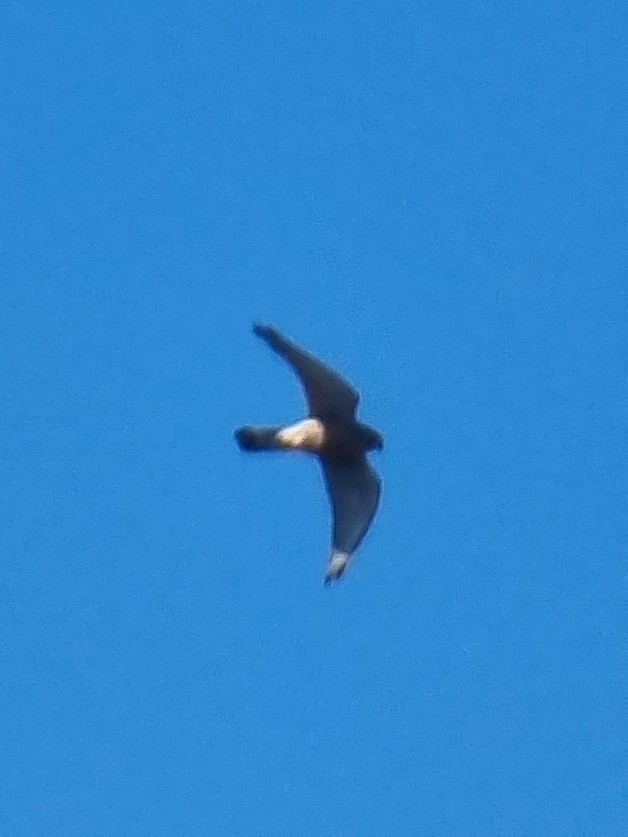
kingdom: Animalia
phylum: Chordata
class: Aves
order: Falconiformes
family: Falconidae
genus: Falco
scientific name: Falco tinnunculus
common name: Common kestrel
